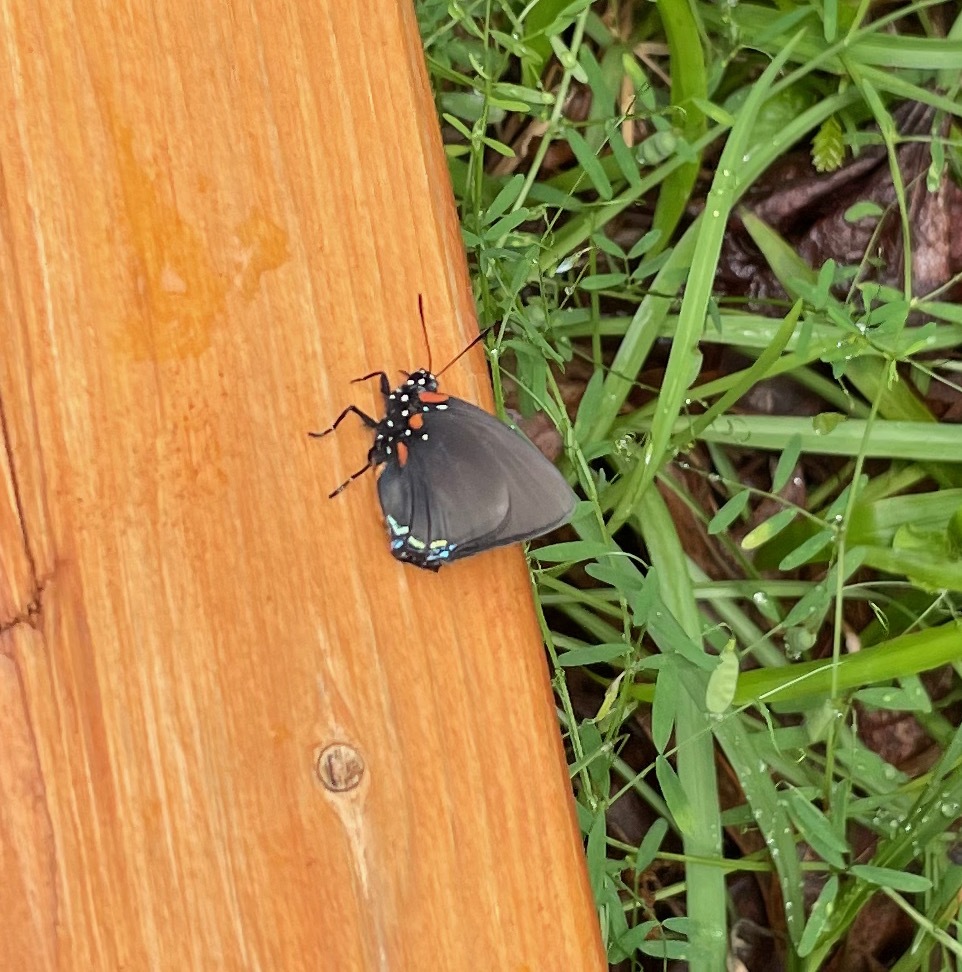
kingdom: Animalia
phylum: Arthropoda
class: Insecta
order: Lepidoptera
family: Lycaenidae
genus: Atlides
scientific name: Atlides halesus
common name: Great purple hairstreak
